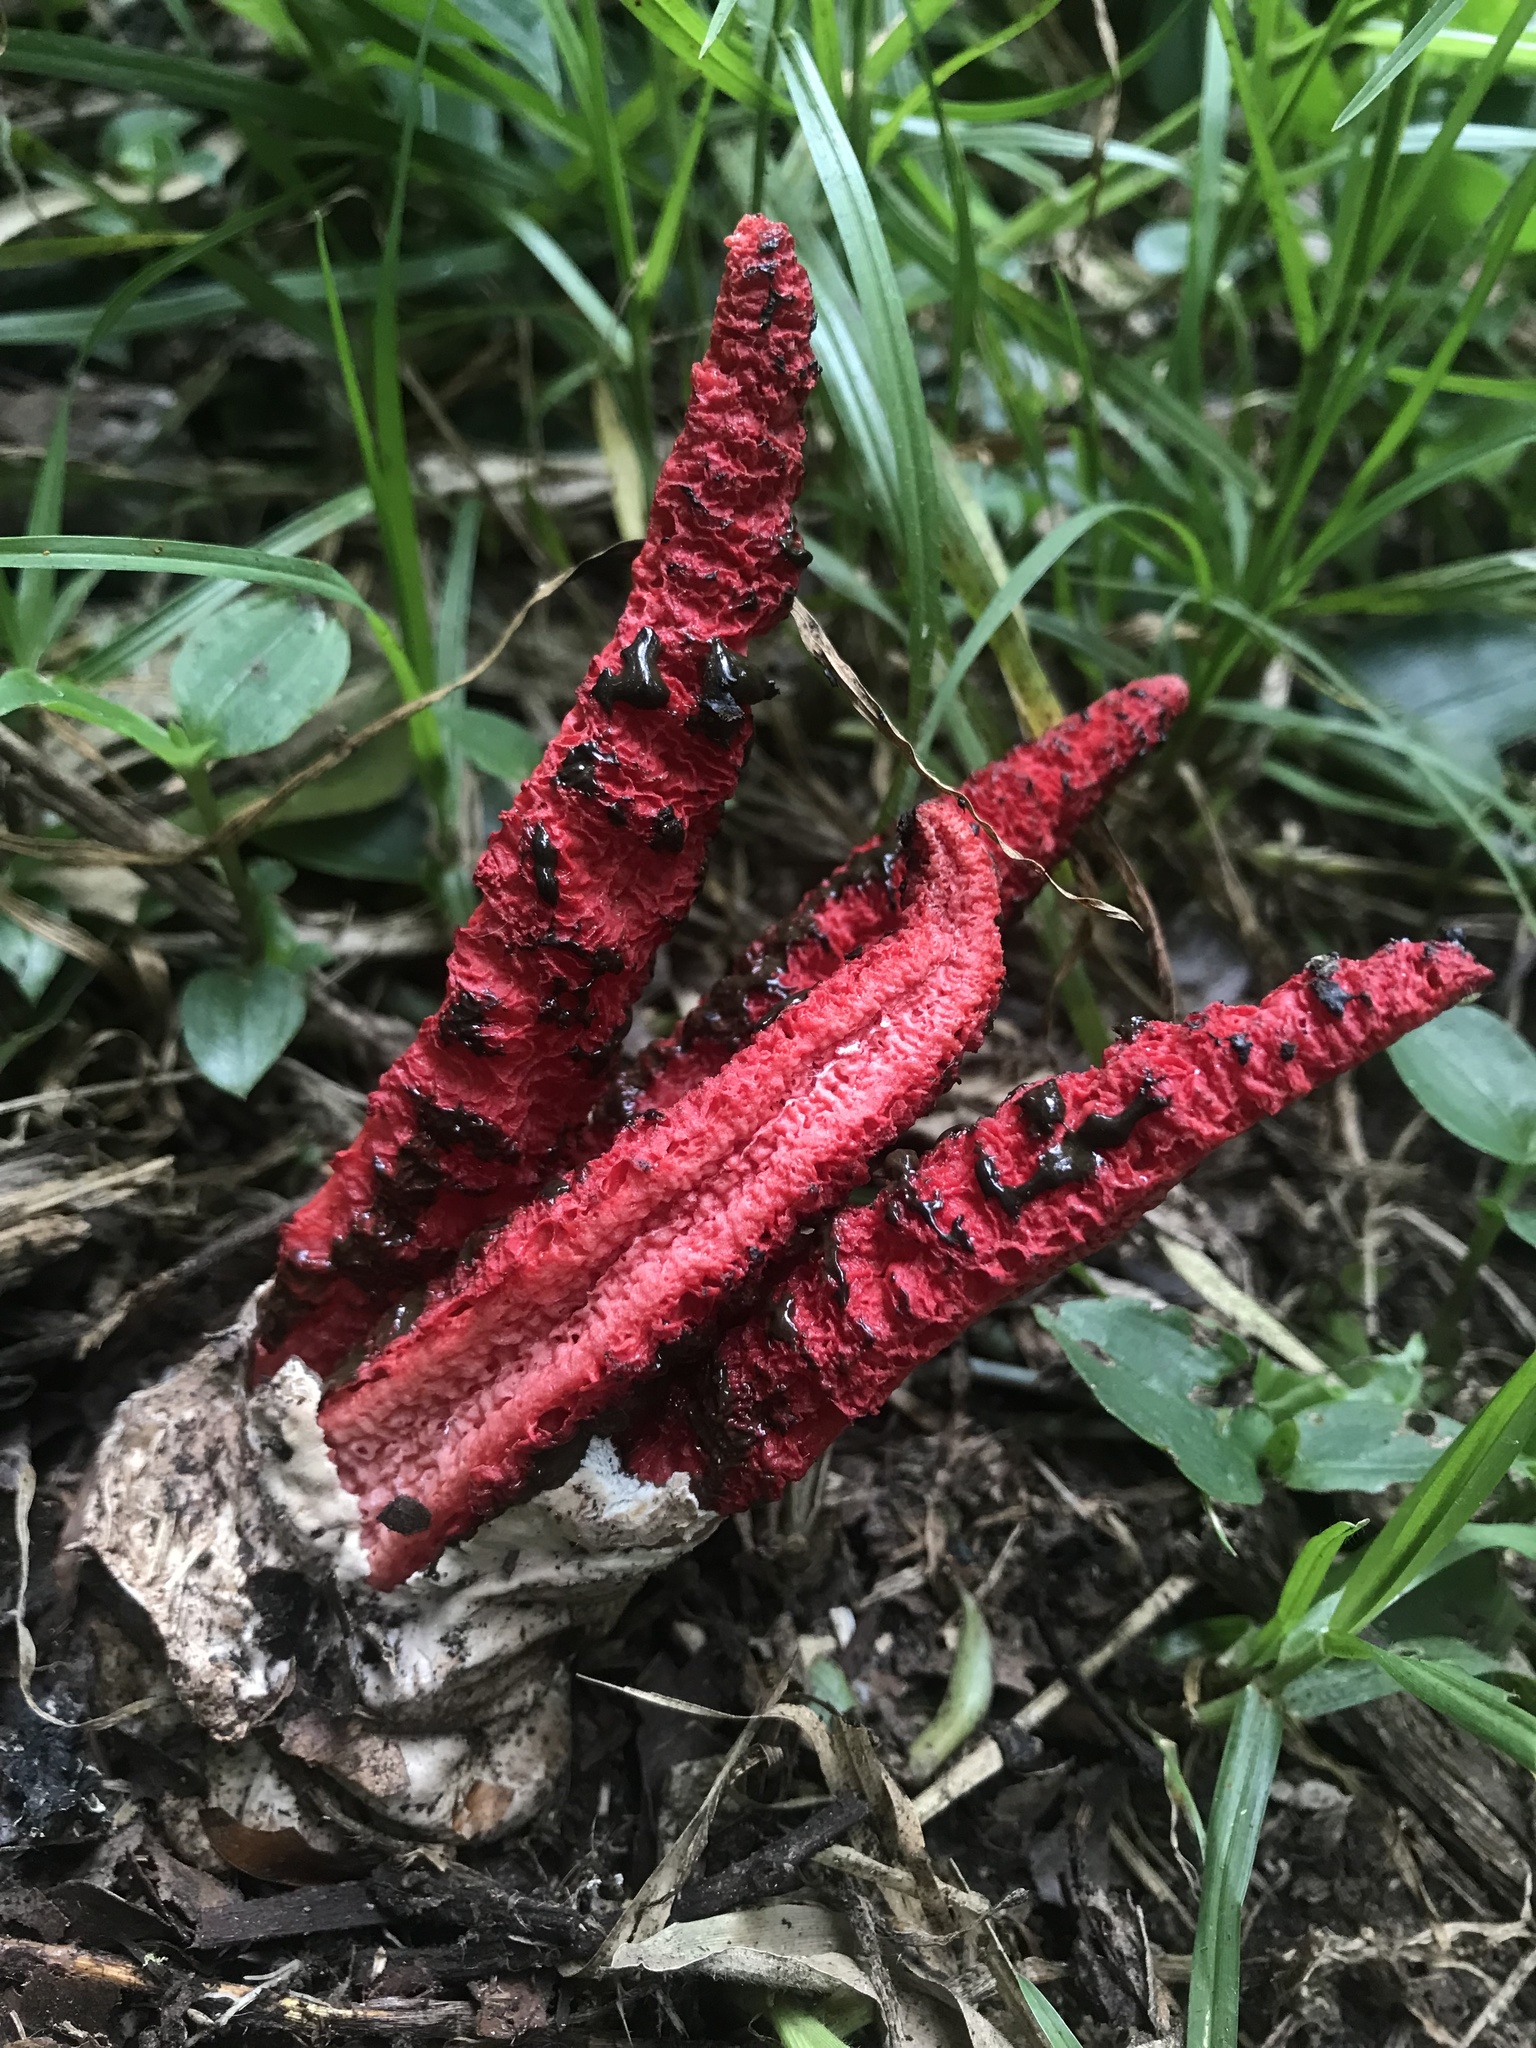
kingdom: Fungi
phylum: Basidiomycota
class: Agaricomycetes
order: Phallales
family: Phallaceae
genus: Clathrus
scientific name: Clathrus archeri
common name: Devil's fingers
